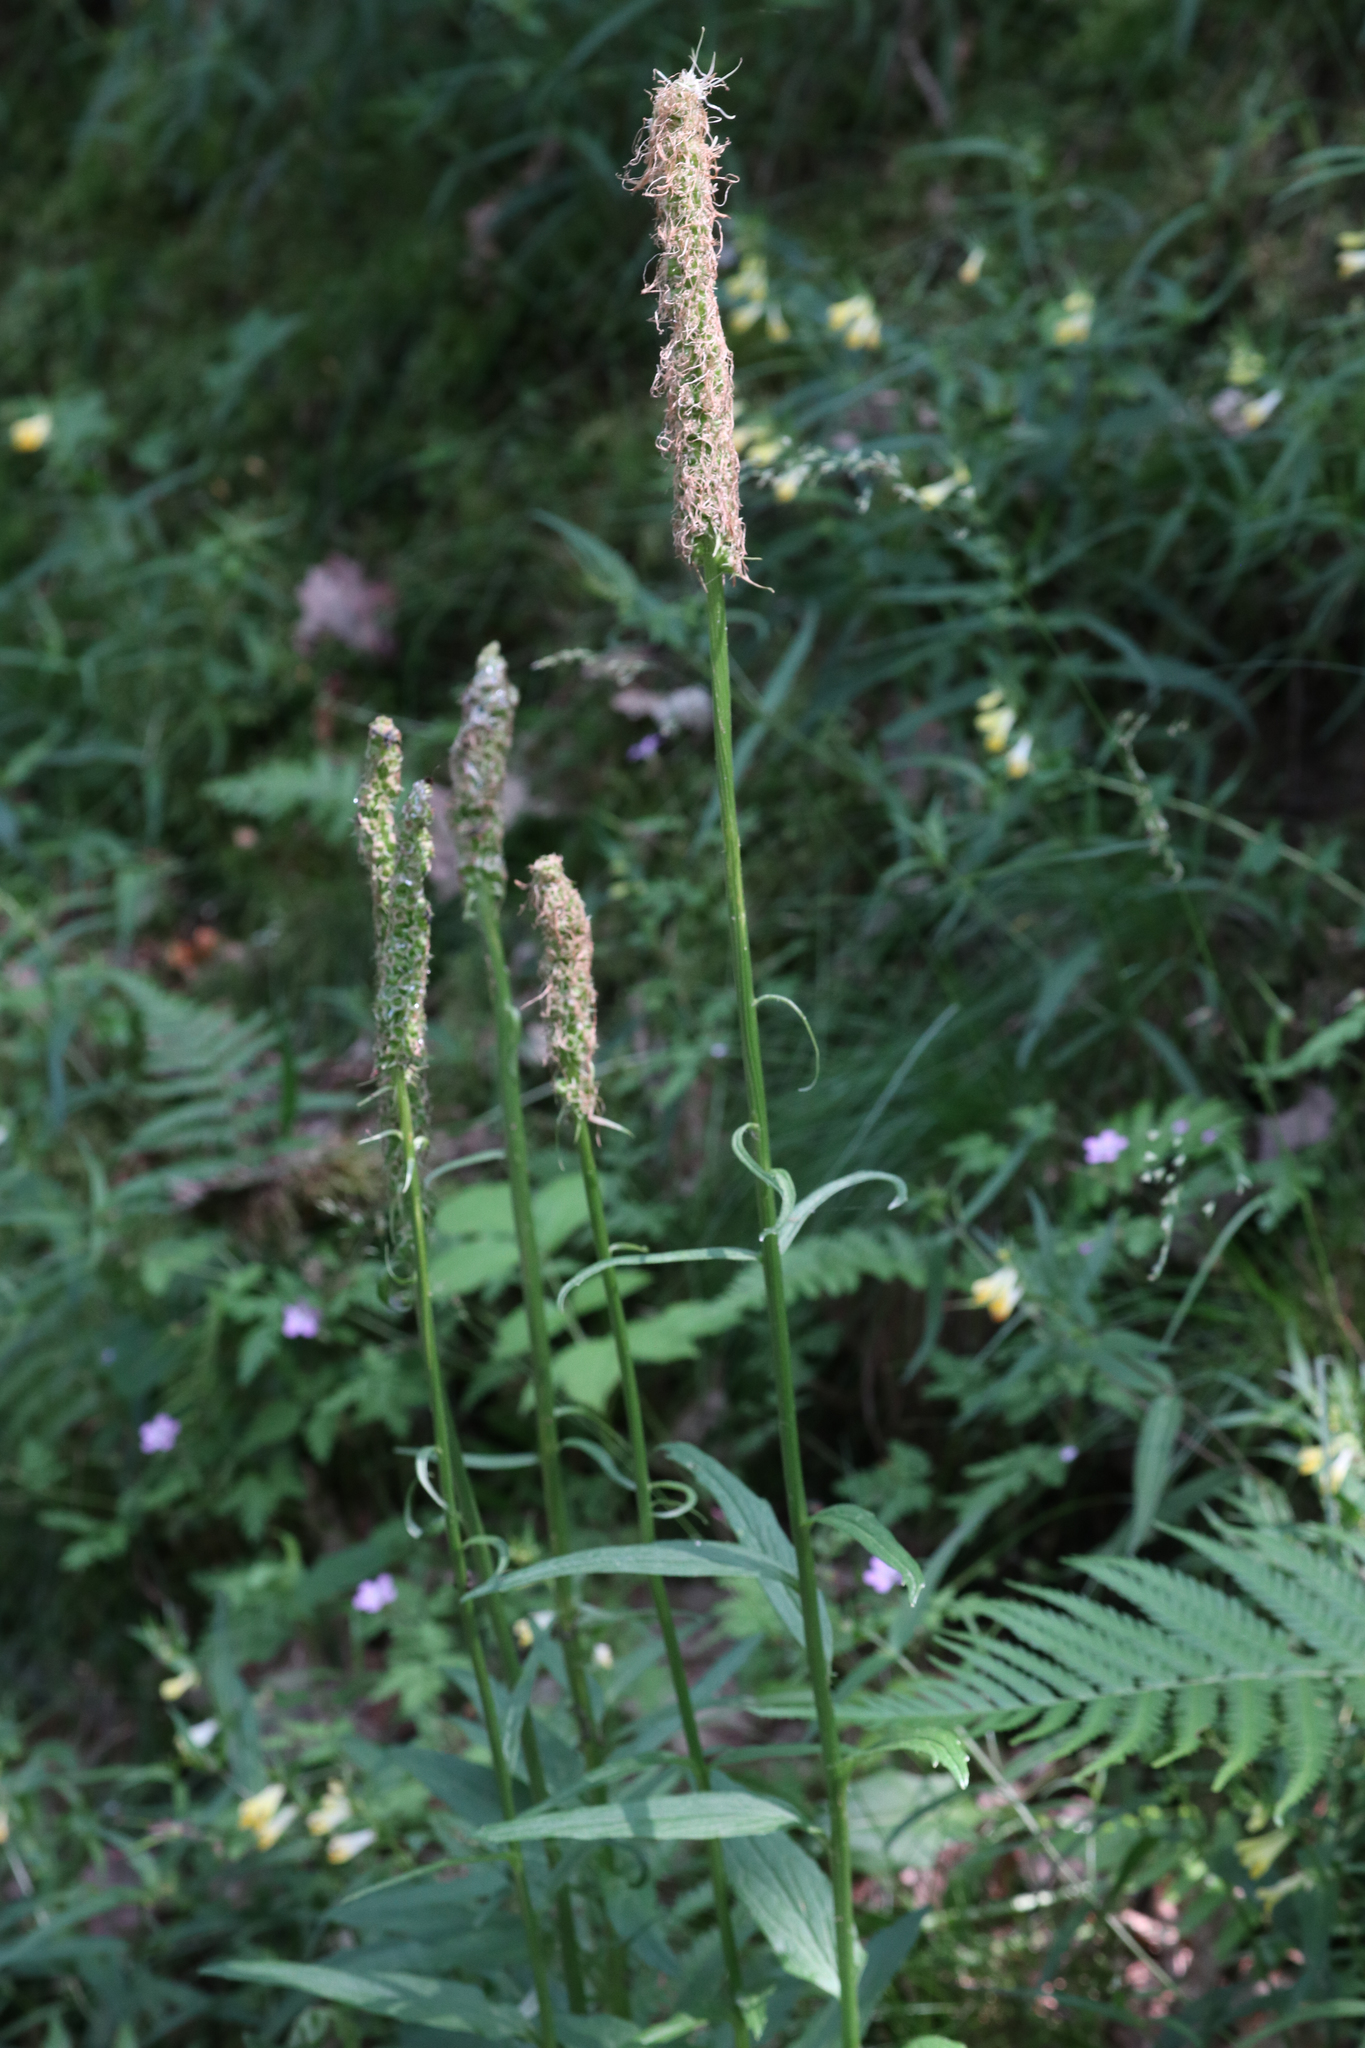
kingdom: Plantae
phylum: Tracheophyta
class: Magnoliopsida
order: Asterales
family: Campanulaceae
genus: Phyteuma
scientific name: Phyteuma spicatum
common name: Spiked rampion
